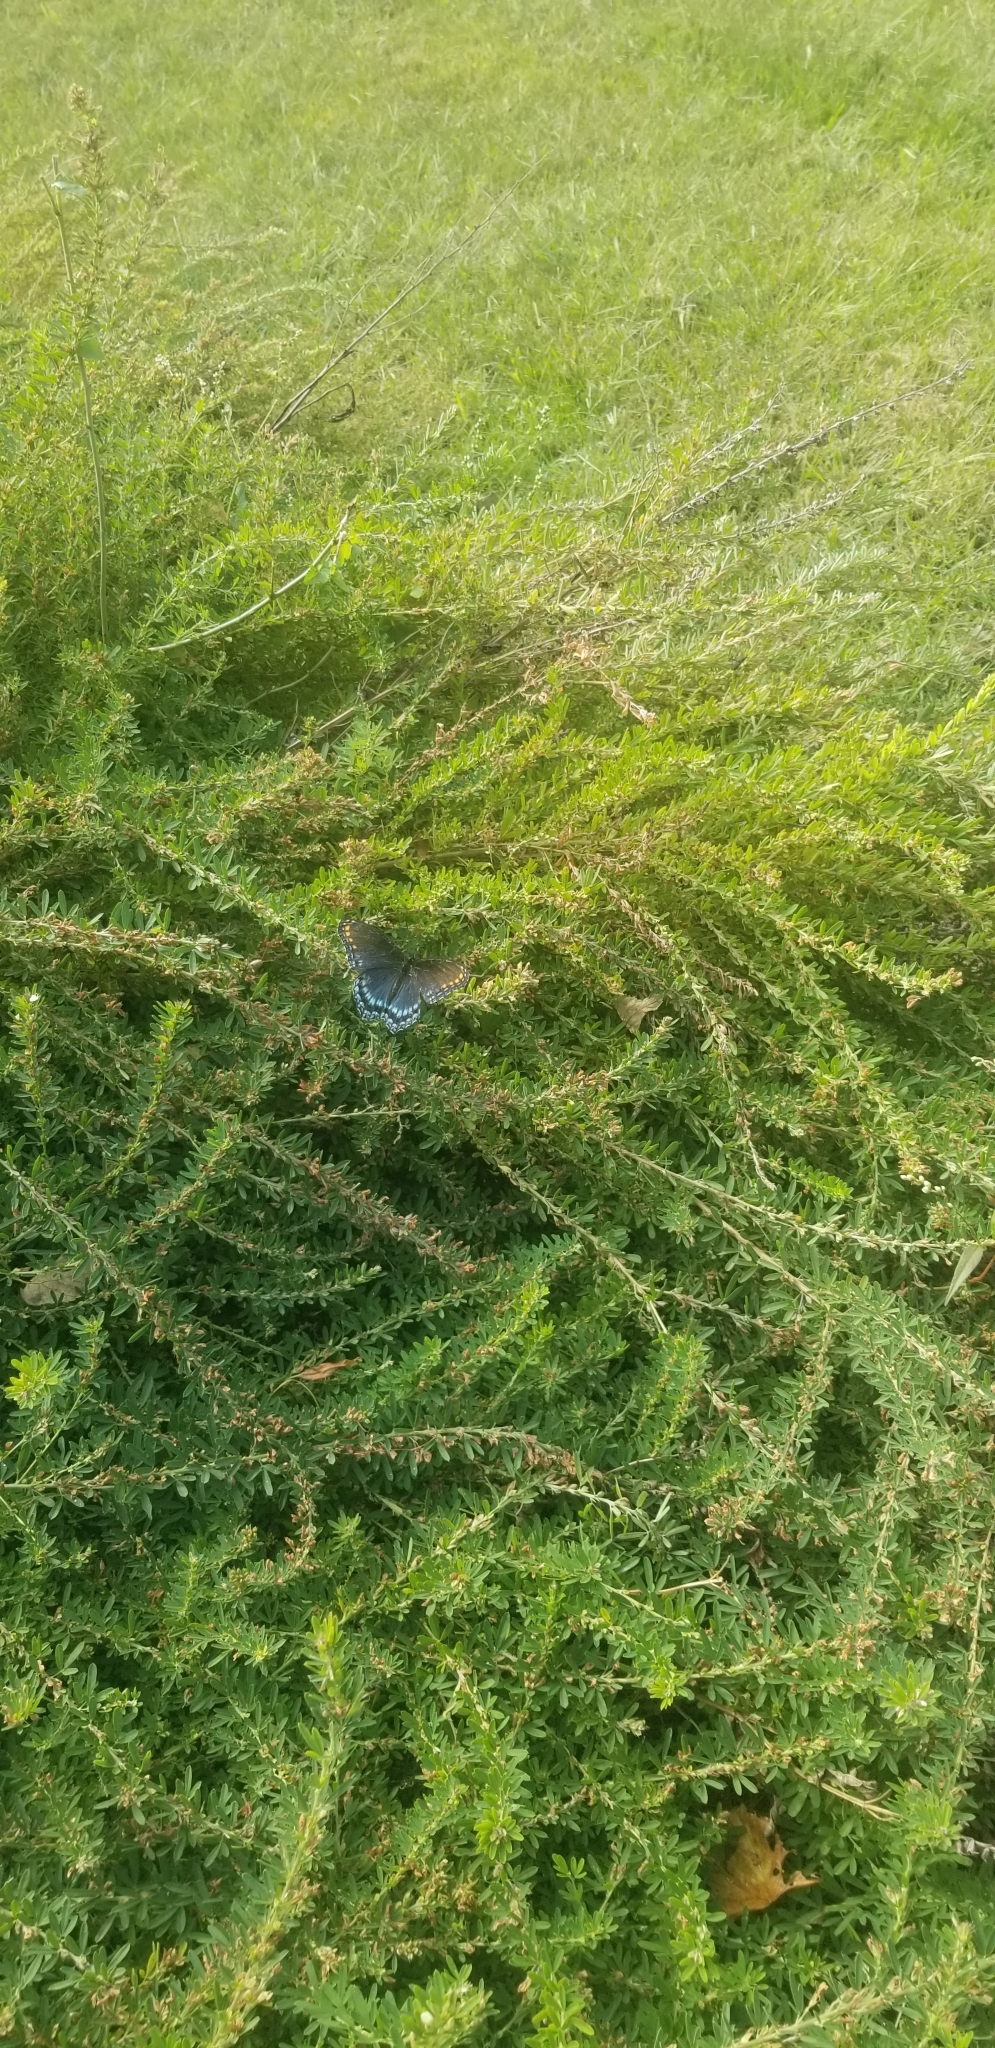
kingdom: Animalia
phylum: Arthropoda
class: Insecta
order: Lepidoptera
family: Nymphalidae
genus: Limenitis
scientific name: Limenitis astyanax
